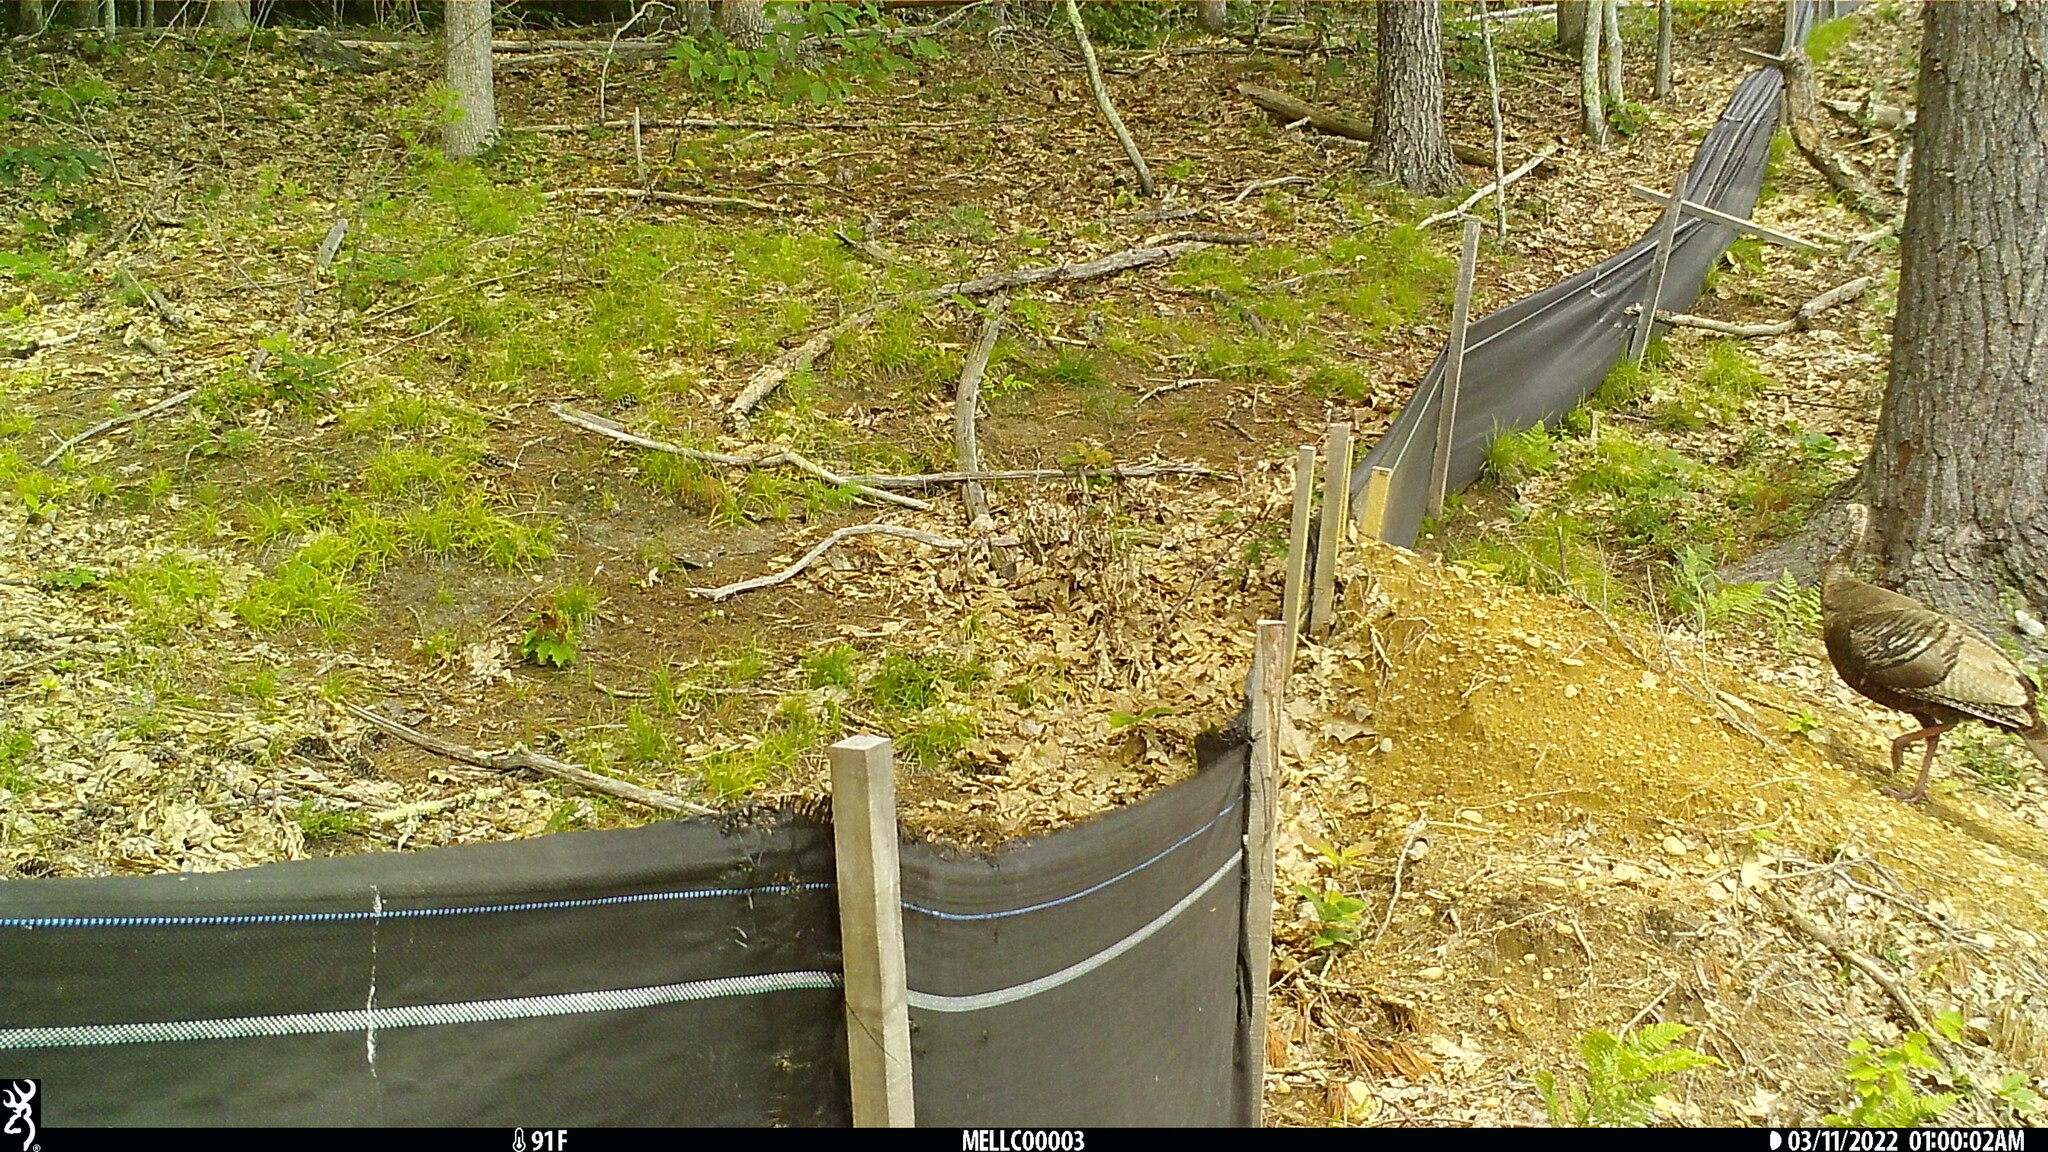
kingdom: Animalia
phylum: Chordata
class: Aves
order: Galliformes
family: Phasianidae
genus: Meleagris
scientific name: Meleagris gallopavo
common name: Wild turkey
